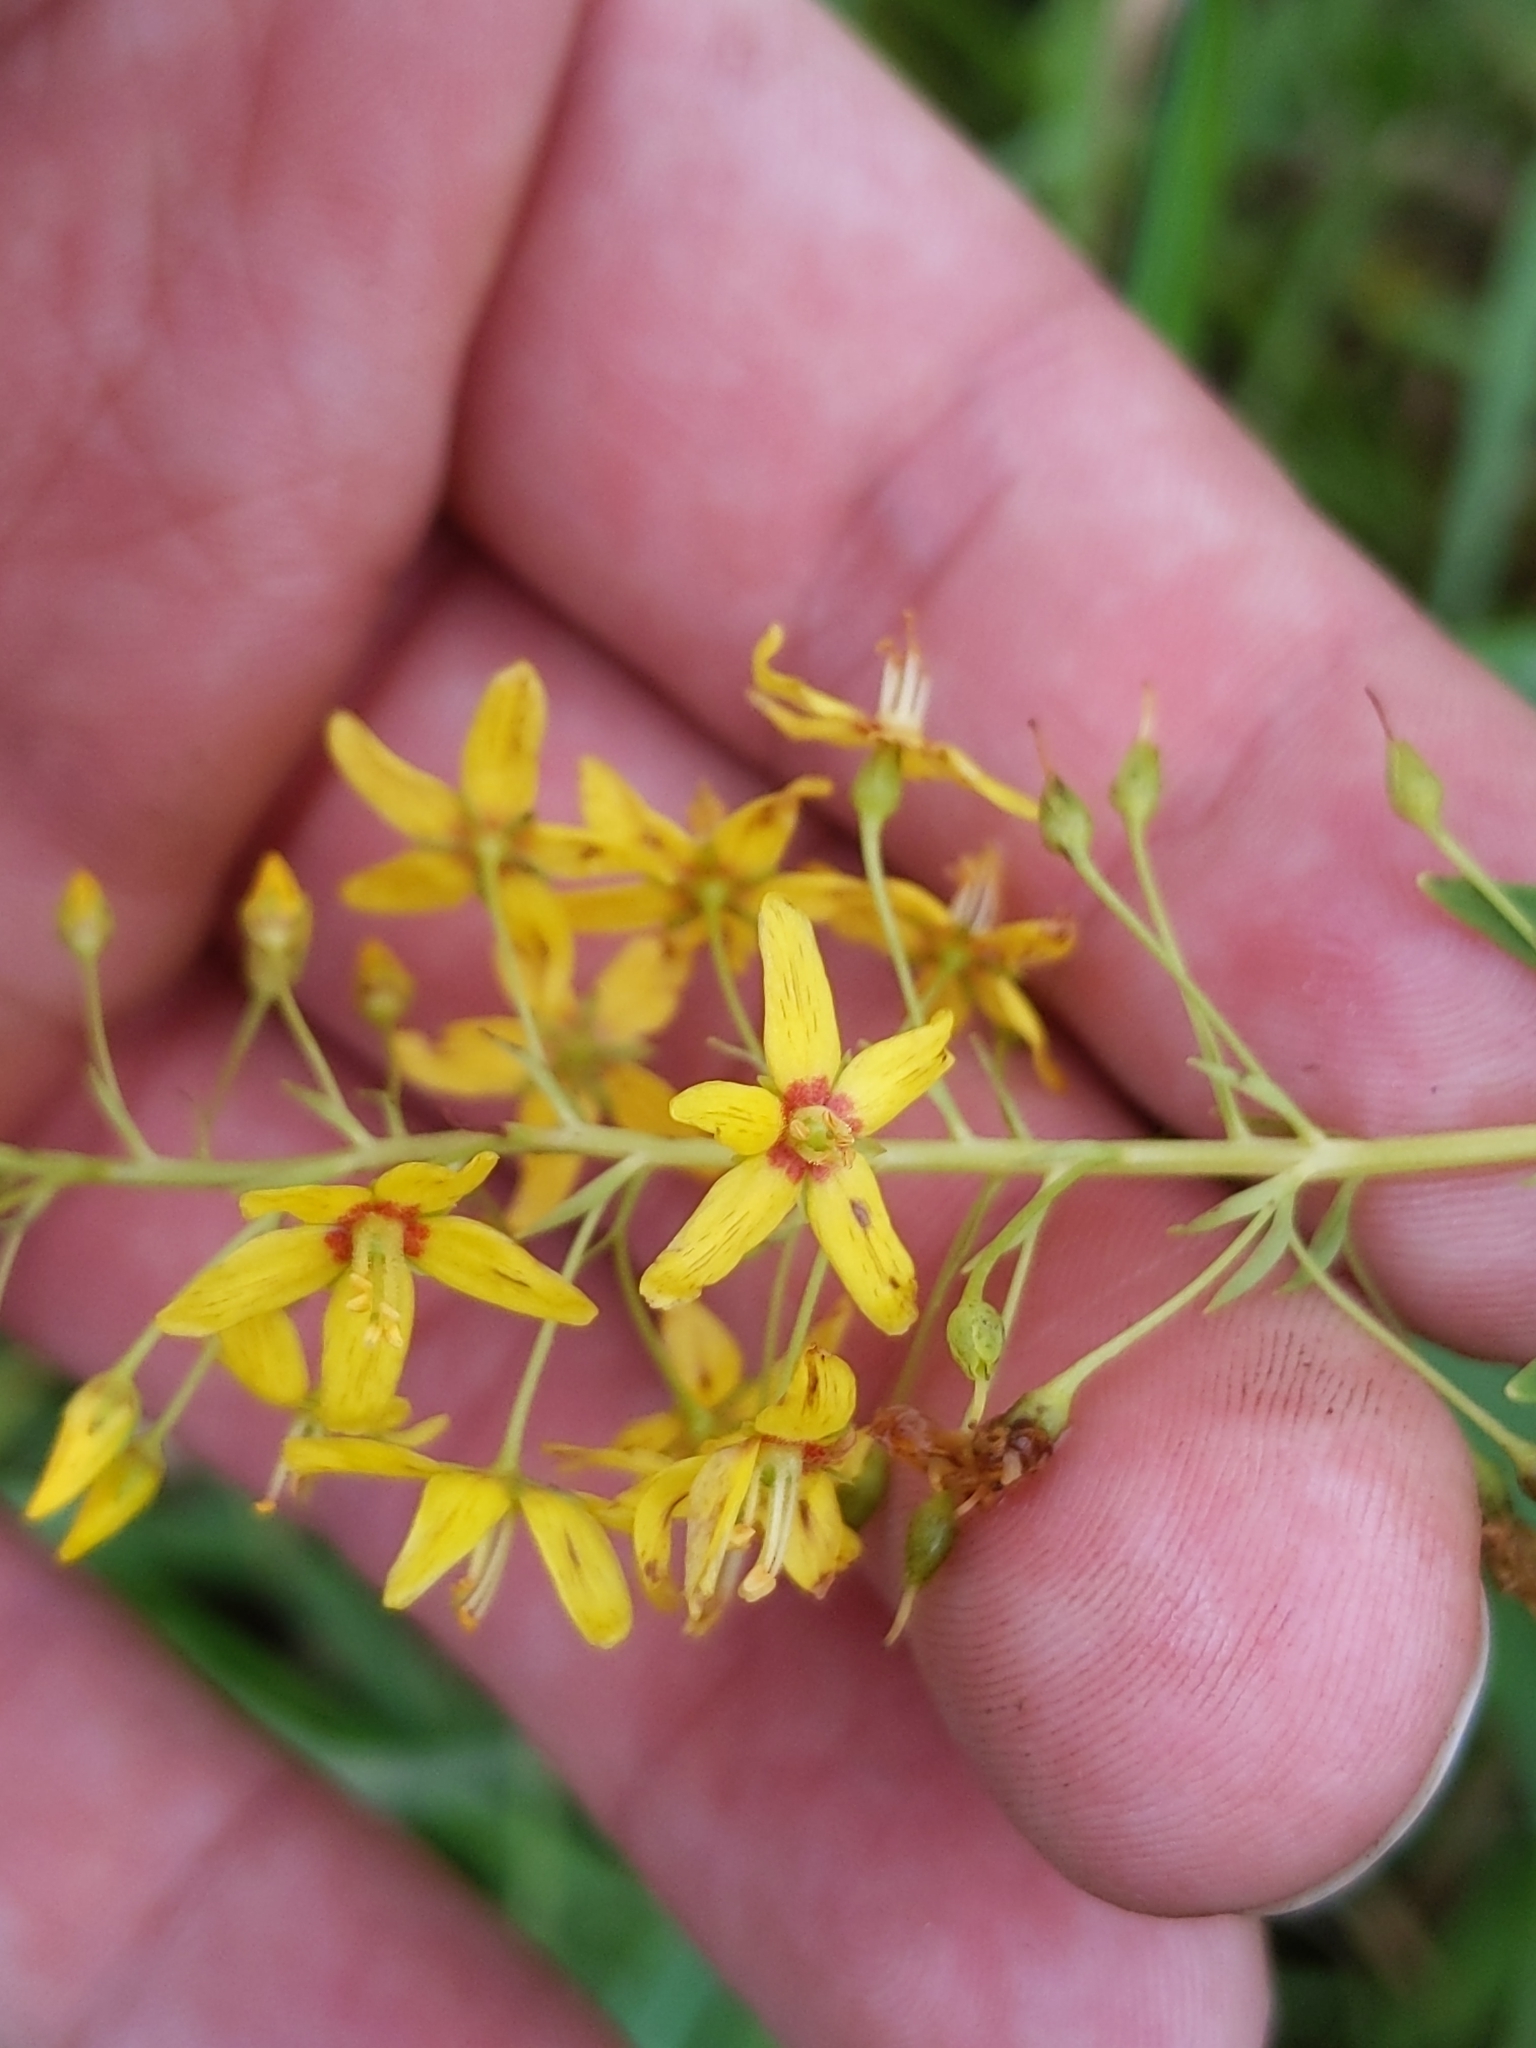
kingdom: Plantae
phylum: Tracheophyta
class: Magnoliopsida
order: Ericales
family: Primulaceae
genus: Lysimachia
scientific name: Lysimachia terrestris
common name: Lake loosestrife
